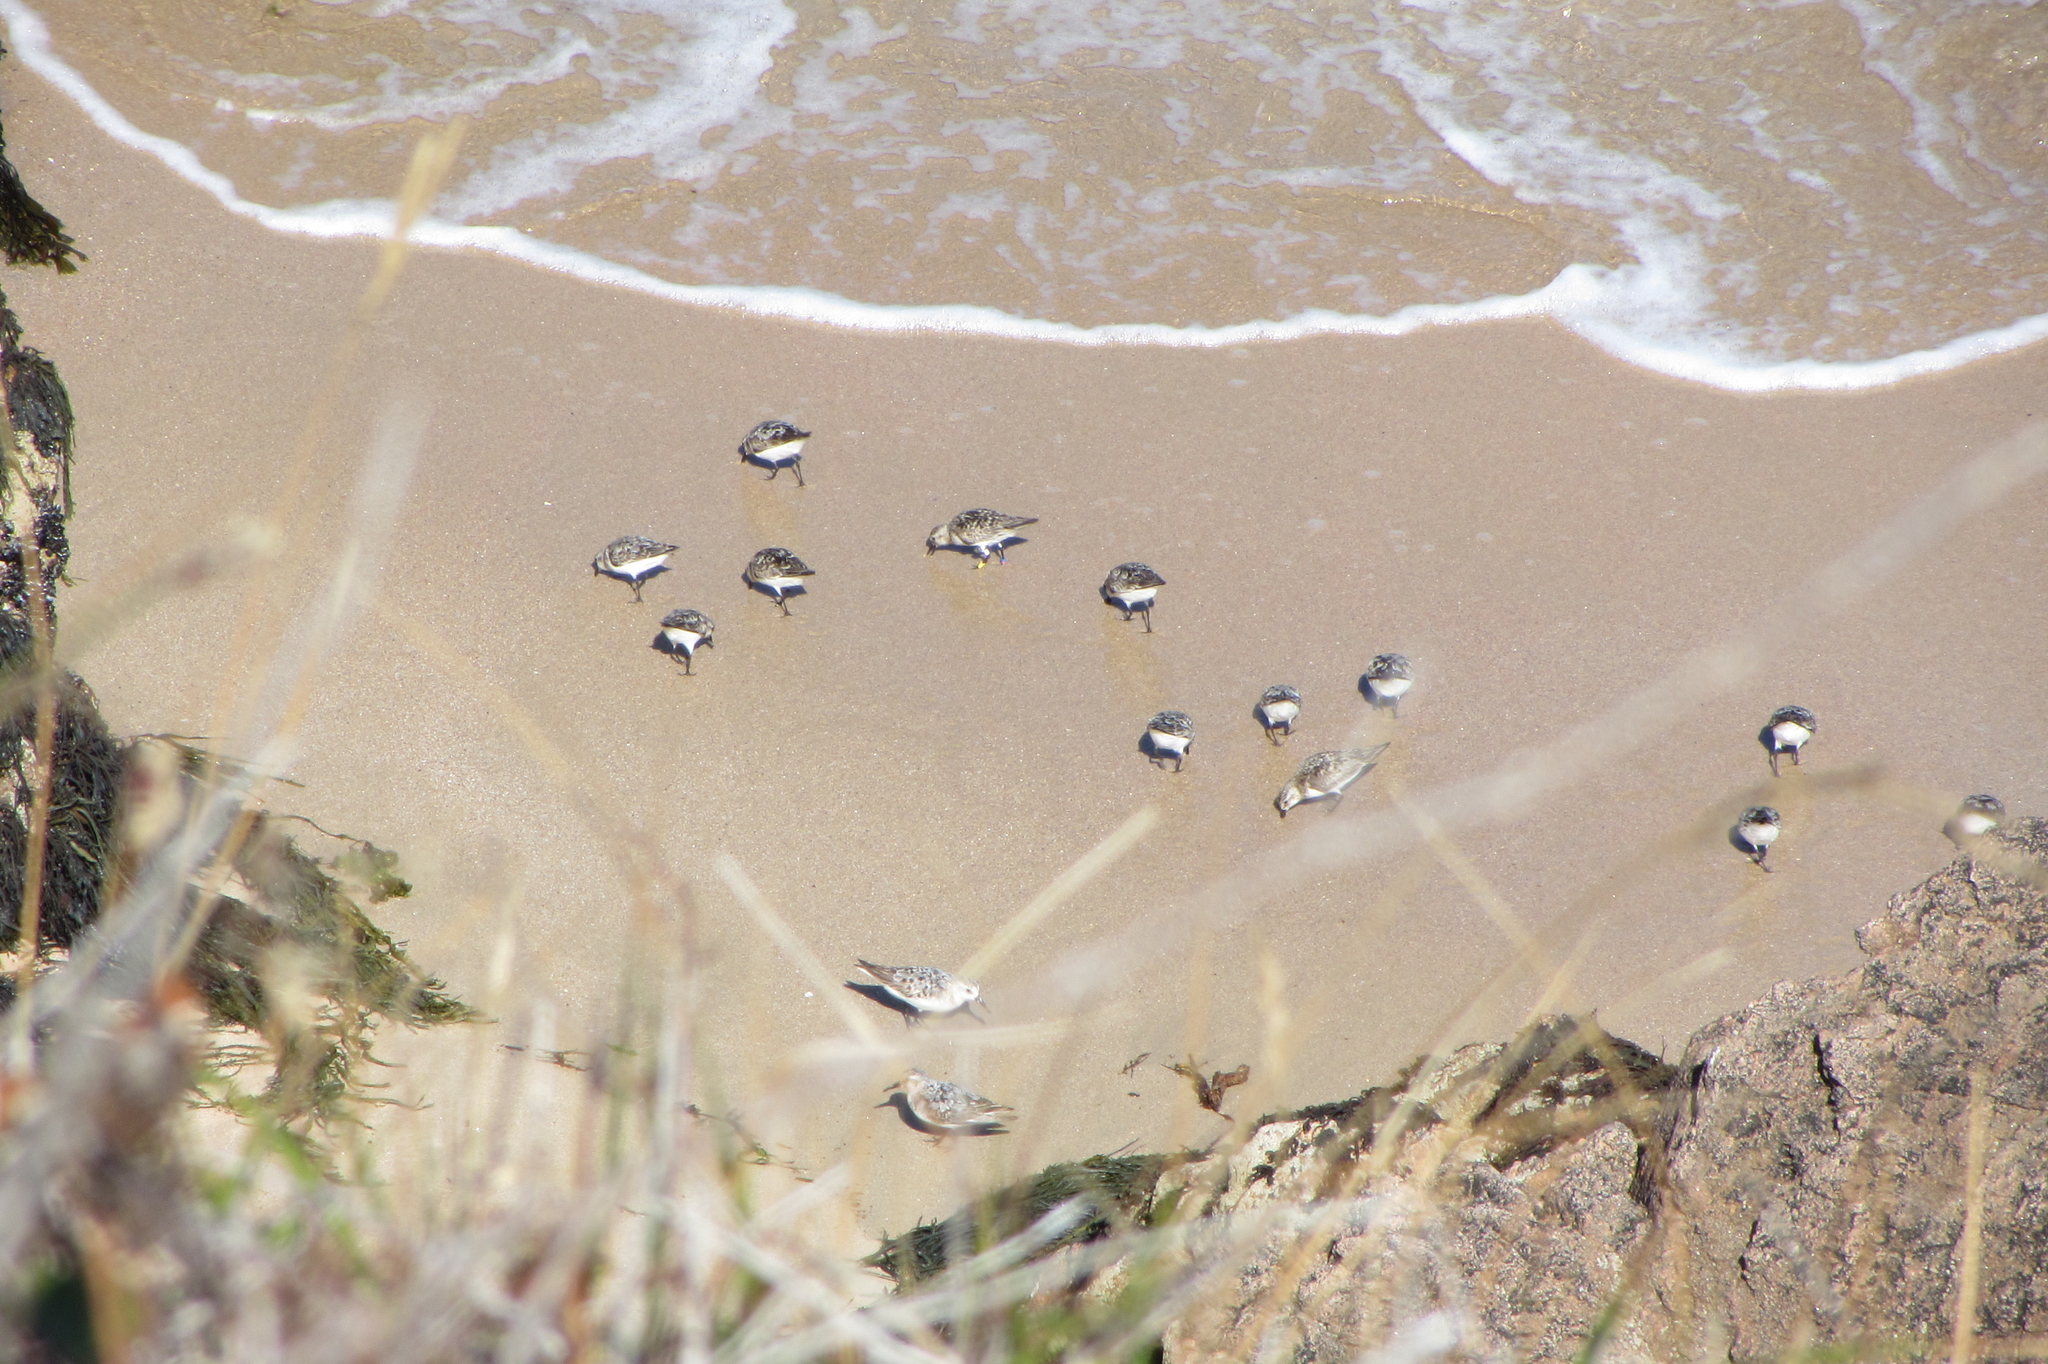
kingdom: Animalia
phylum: Chordata
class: Aves
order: Charadriiformes
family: Scolopacidae
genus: Calidris
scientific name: Calidris alba
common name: Sanderling
